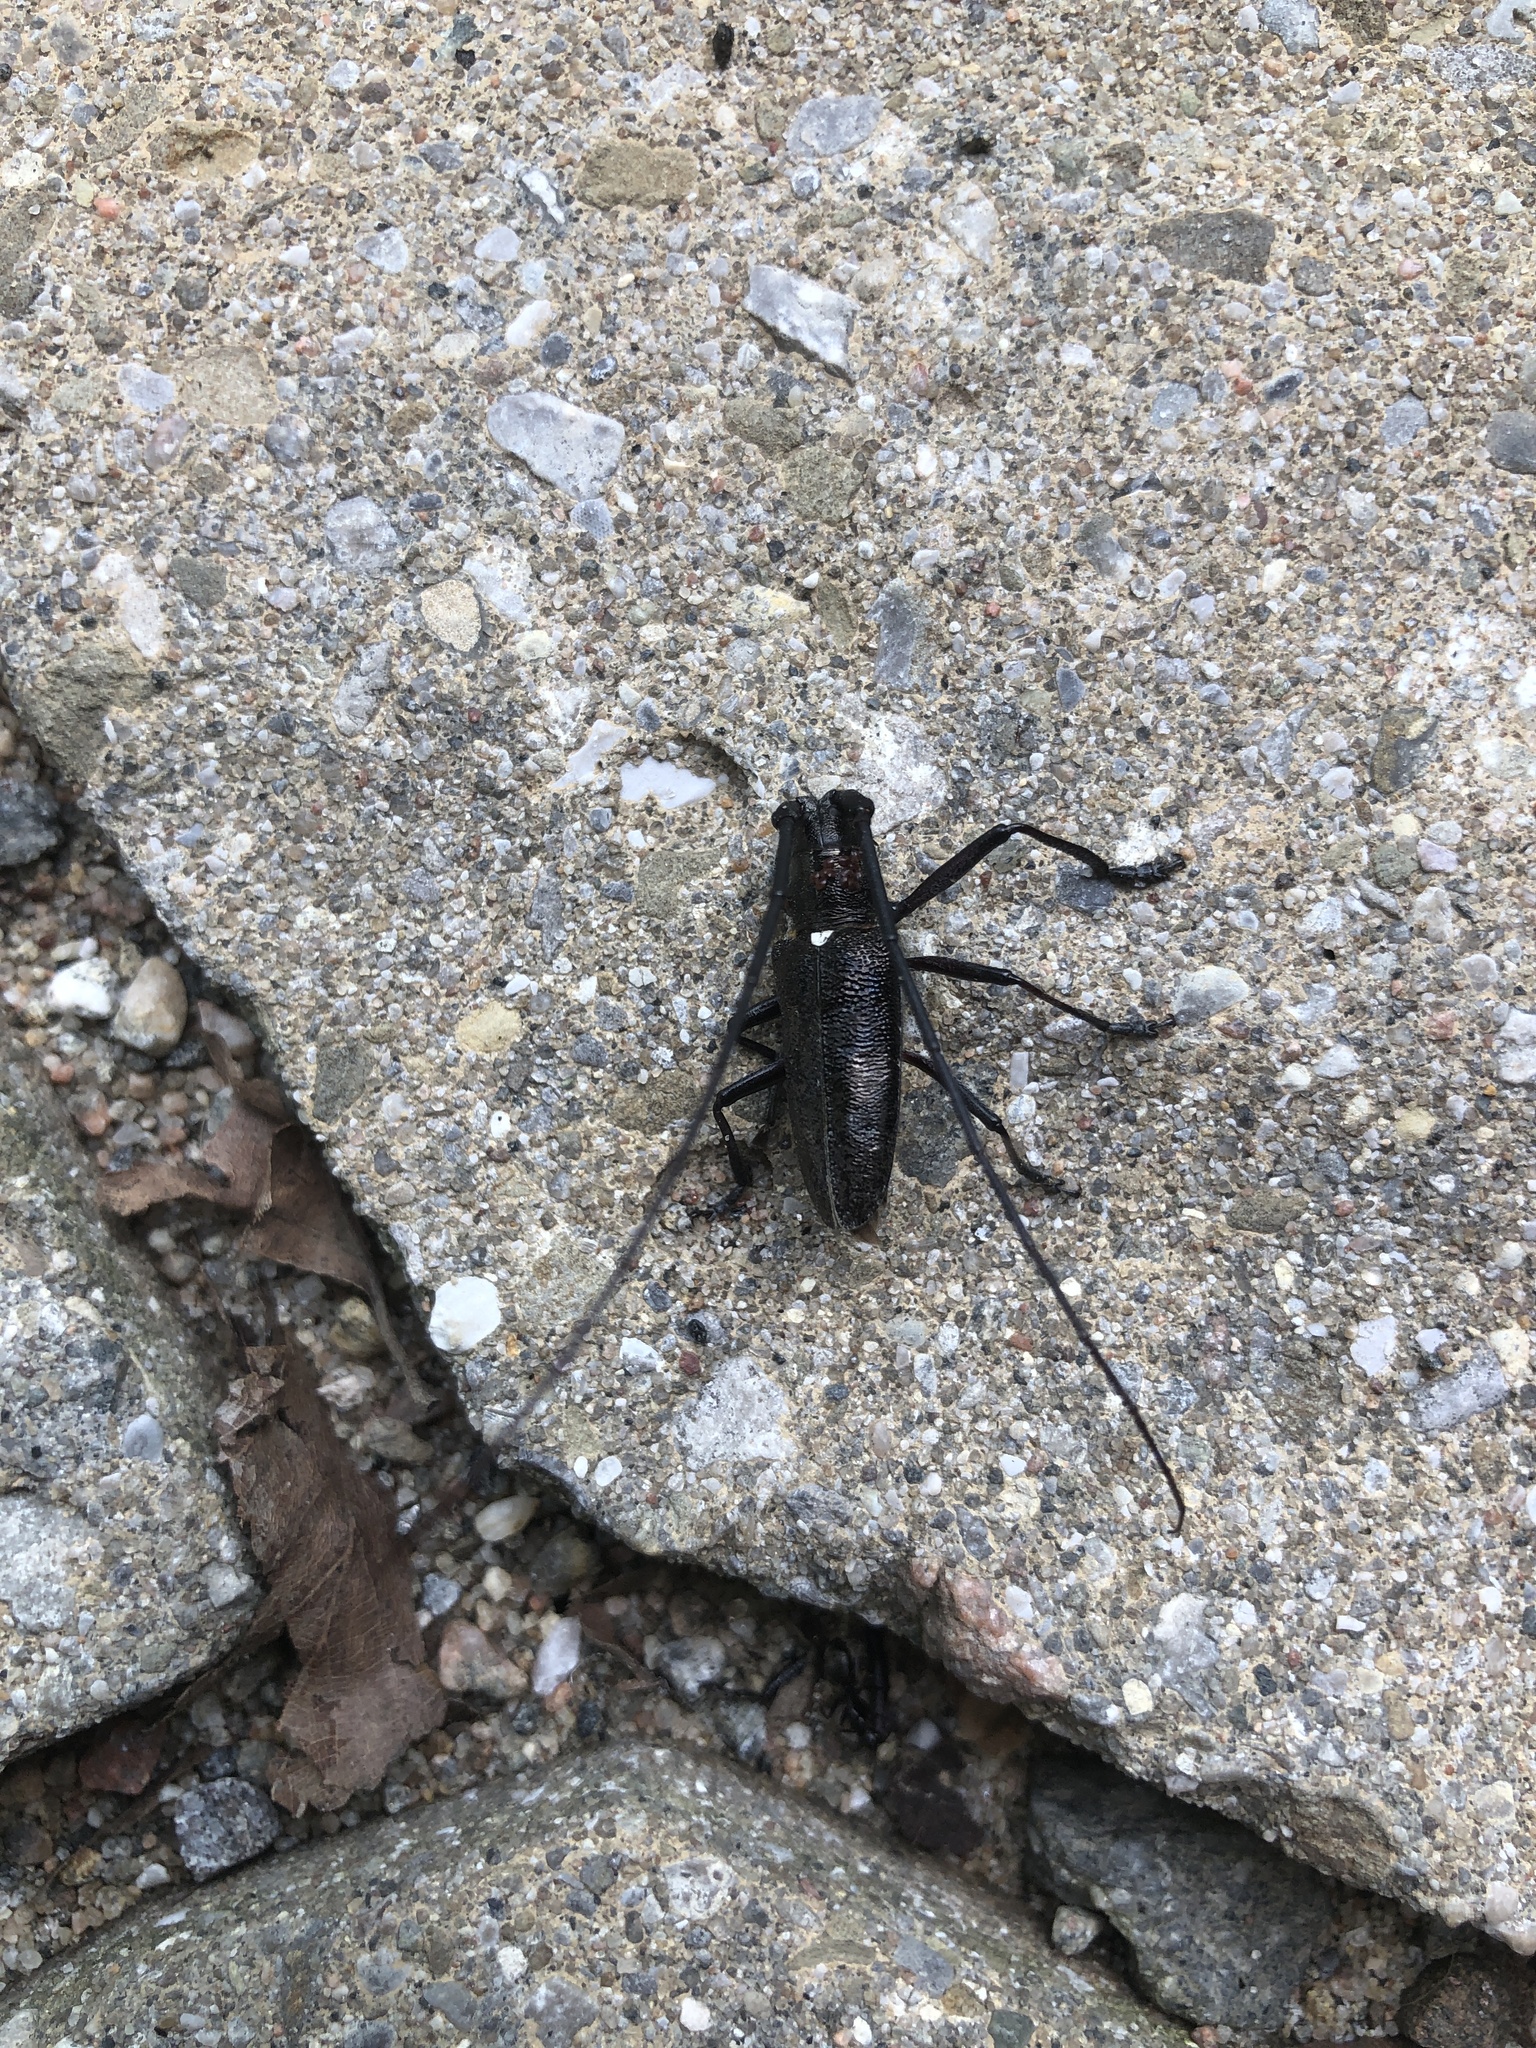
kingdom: Animalia
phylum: Arthropoda
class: Insecta
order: Coleoptera
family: Cerambycidae
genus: Monochamus
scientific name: Monochamus scutellatus
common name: White-spotted sawyer beetle
